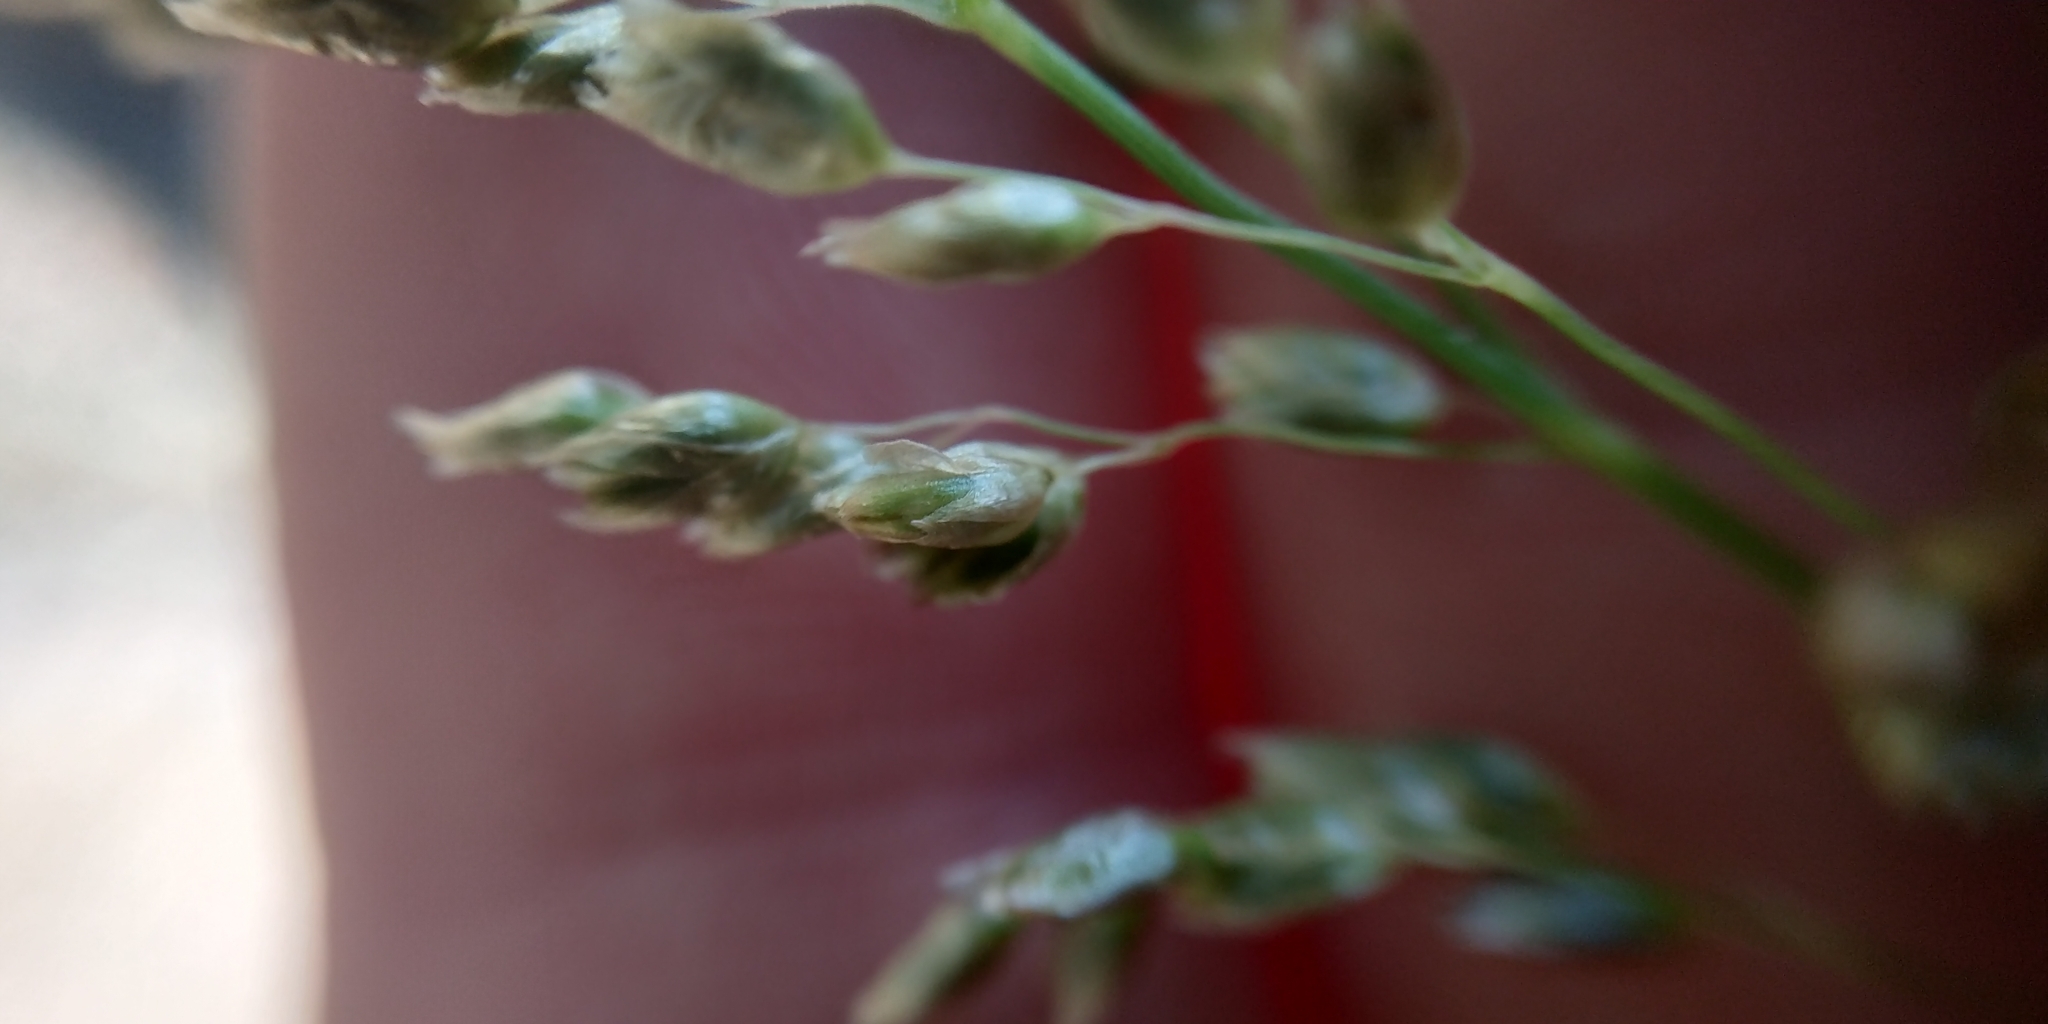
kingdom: Plantae
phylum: Tracheophyta
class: Liliopsida
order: Poales
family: Poaceae
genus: Anthoxanthum
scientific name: Anthoxanthum nitens
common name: Holy grass
